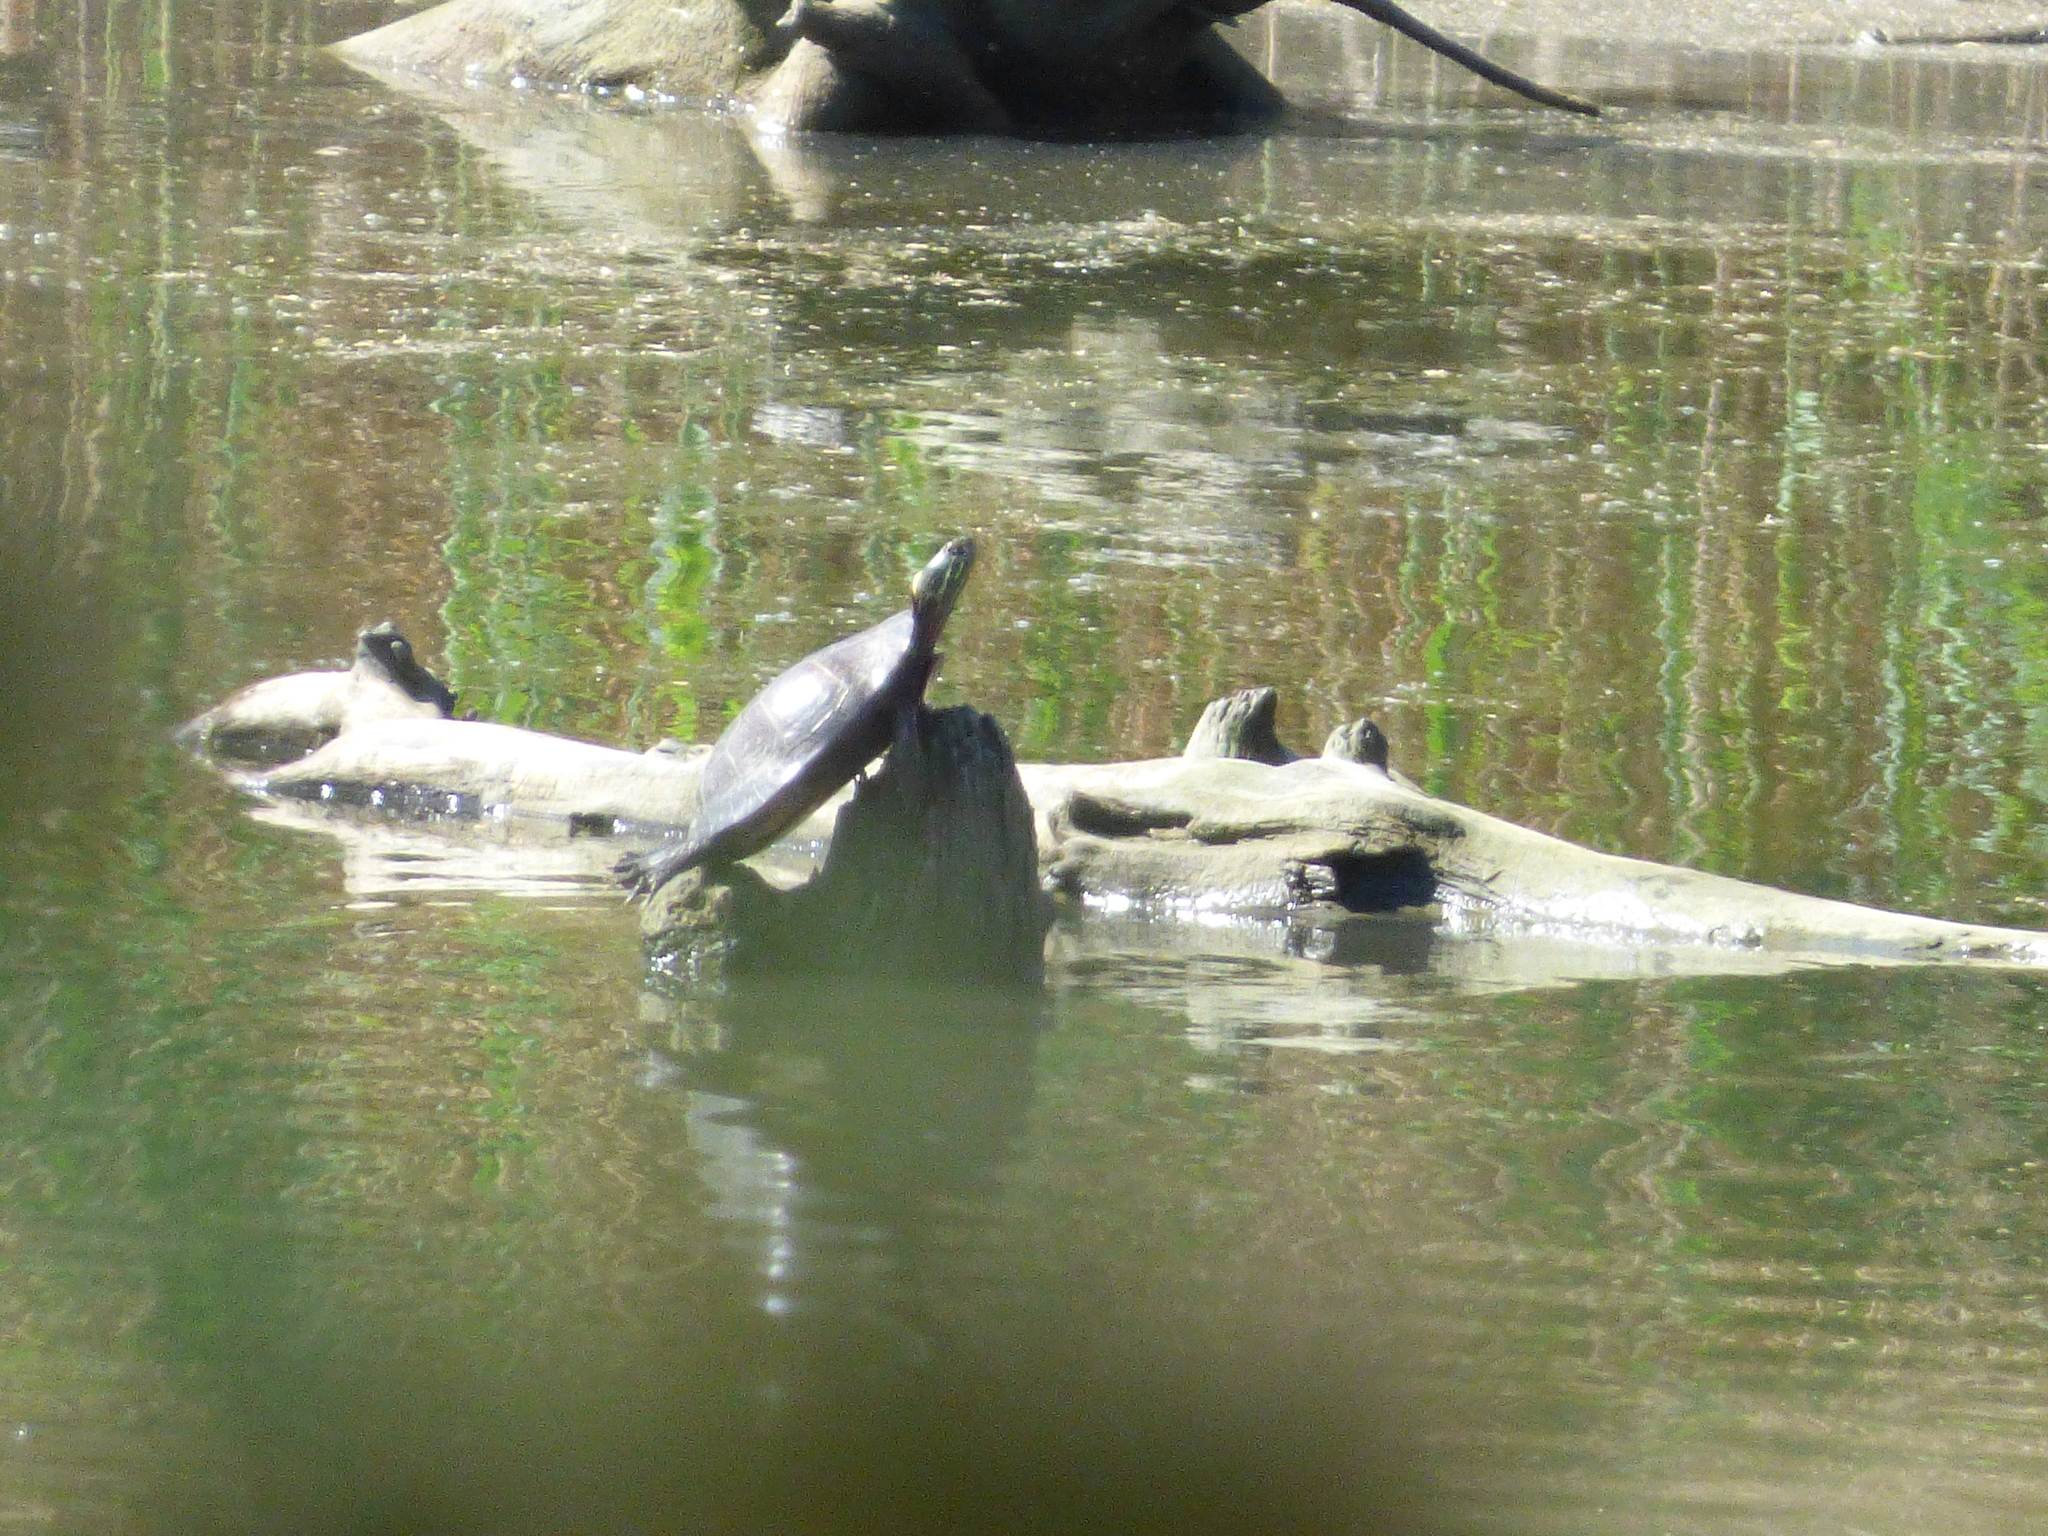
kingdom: Animalia
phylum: Chordata
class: Testudines
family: Emydidae
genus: Chrysemys
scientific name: Chrysemys picta
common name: Painted turtle
